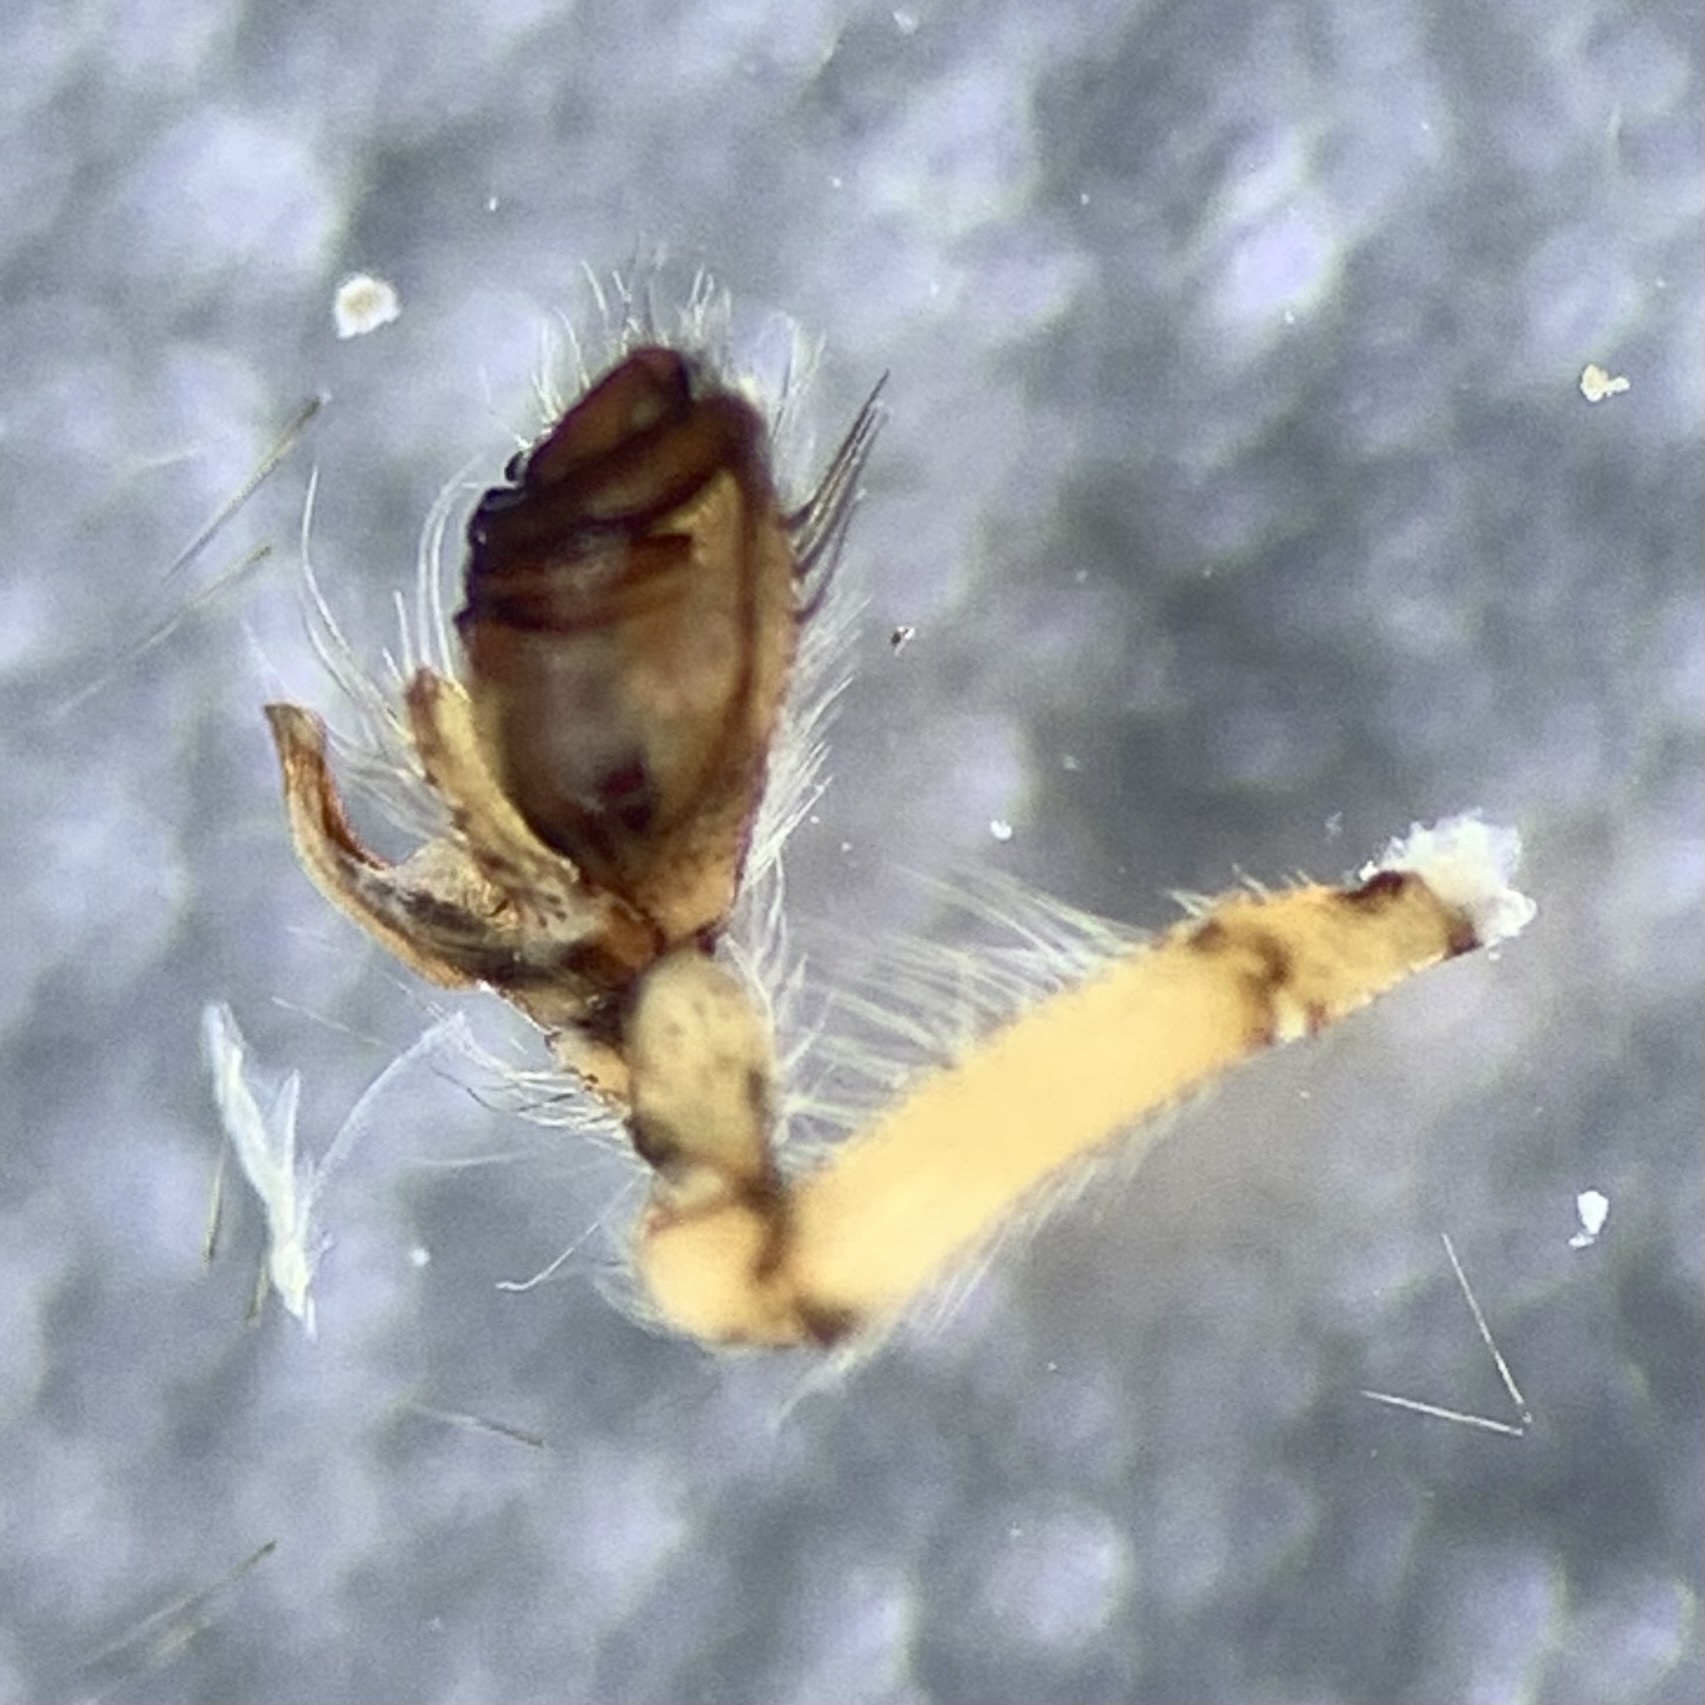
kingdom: Animalia
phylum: Arthropoda
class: Arachnida
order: Araneae
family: Tetragnathidae
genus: Metellina
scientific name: Metellina merianae
